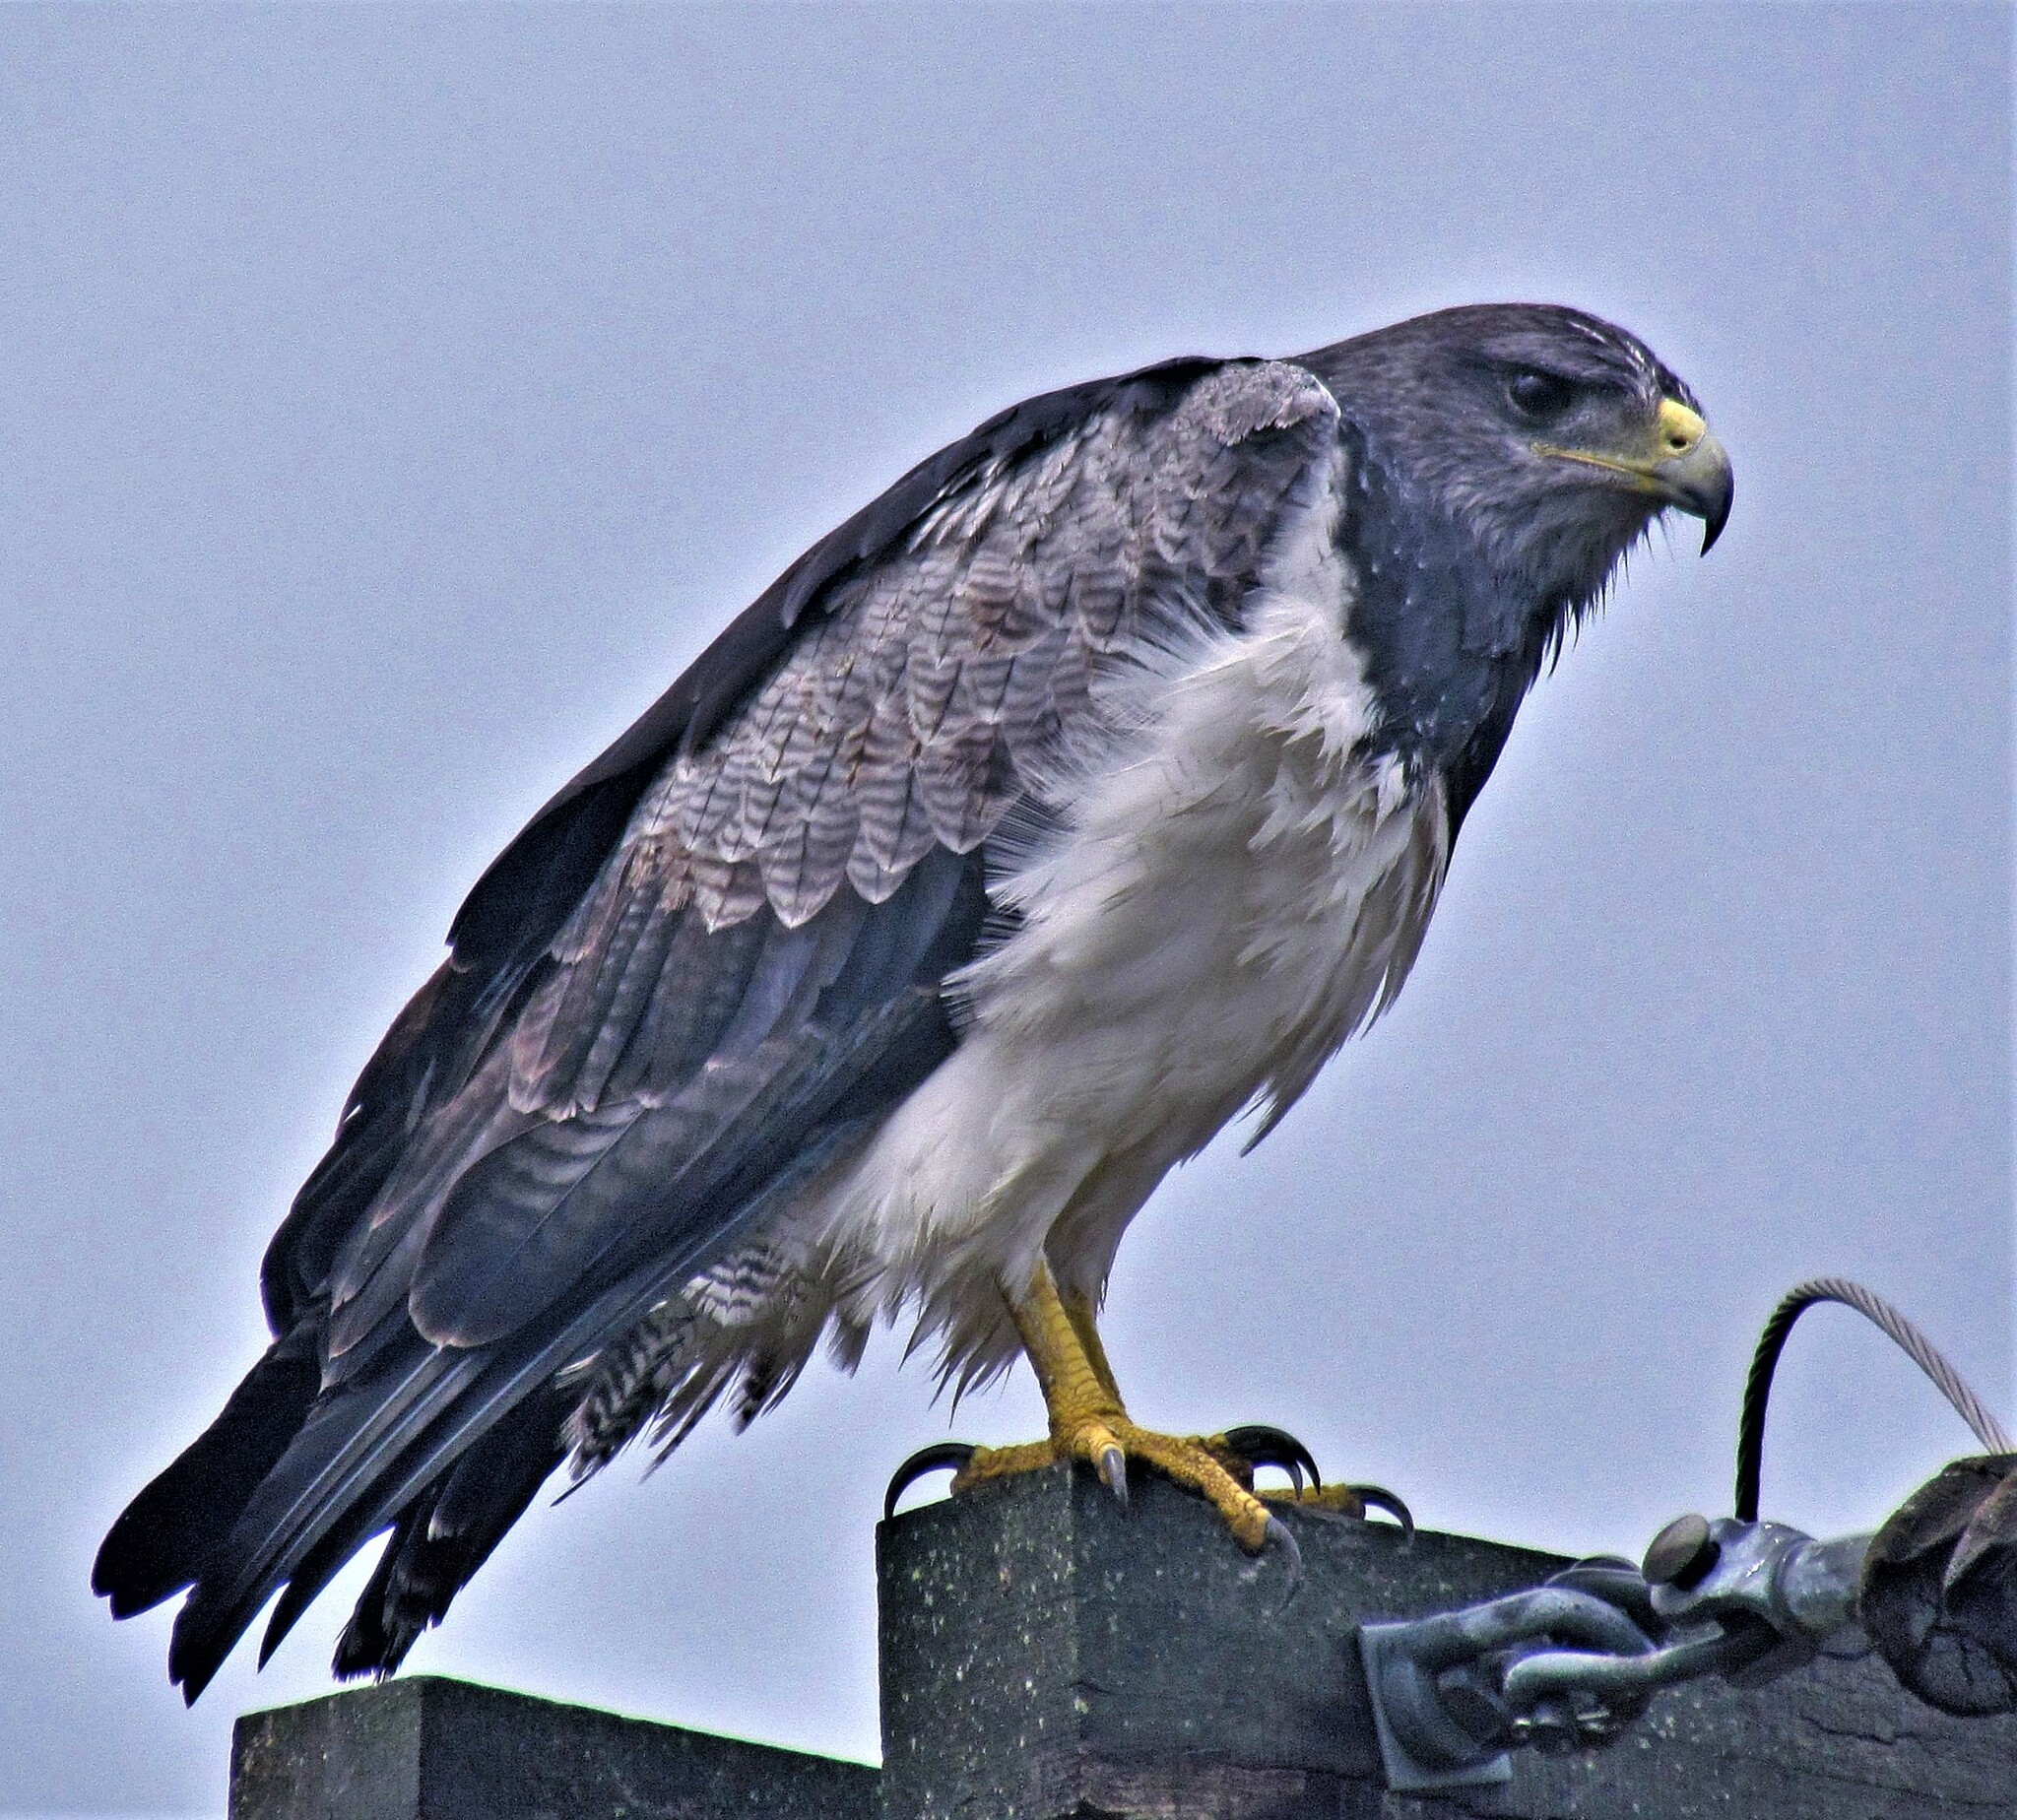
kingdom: Animalia
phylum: Chordata
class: Aves
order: Accipitriformes
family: Accipitridae
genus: Geranoaetus
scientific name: Geranoaetus melanoleucus
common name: Black-chested buzzard-eagle
